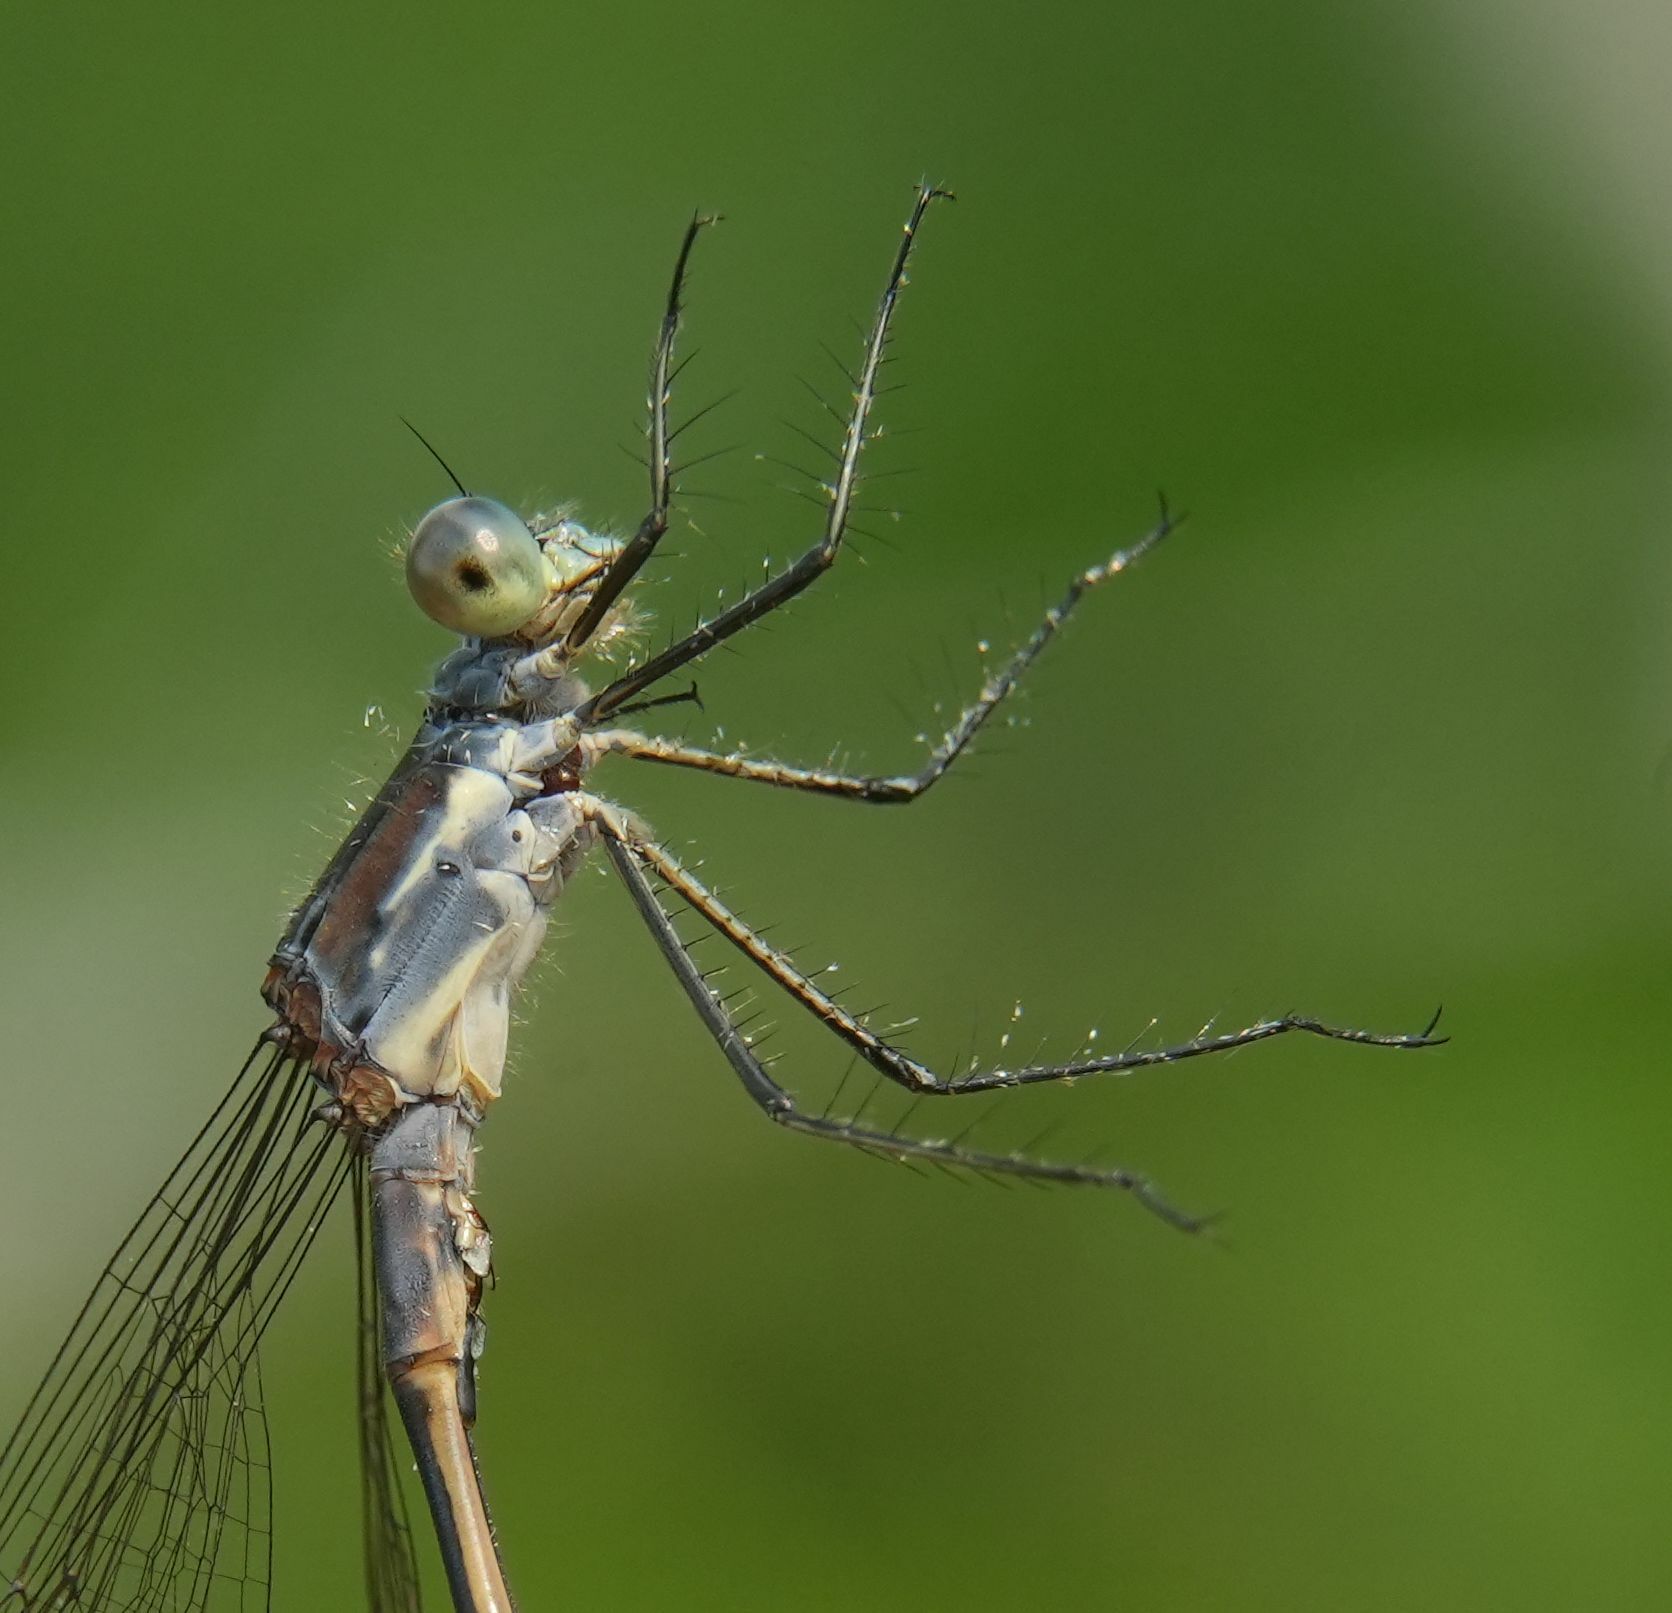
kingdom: Animalia
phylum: Arthropoda
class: Insecta
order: Odonata
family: Lestidae
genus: Lestes
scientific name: Lestes disjunctus
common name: Northern spreadwing
